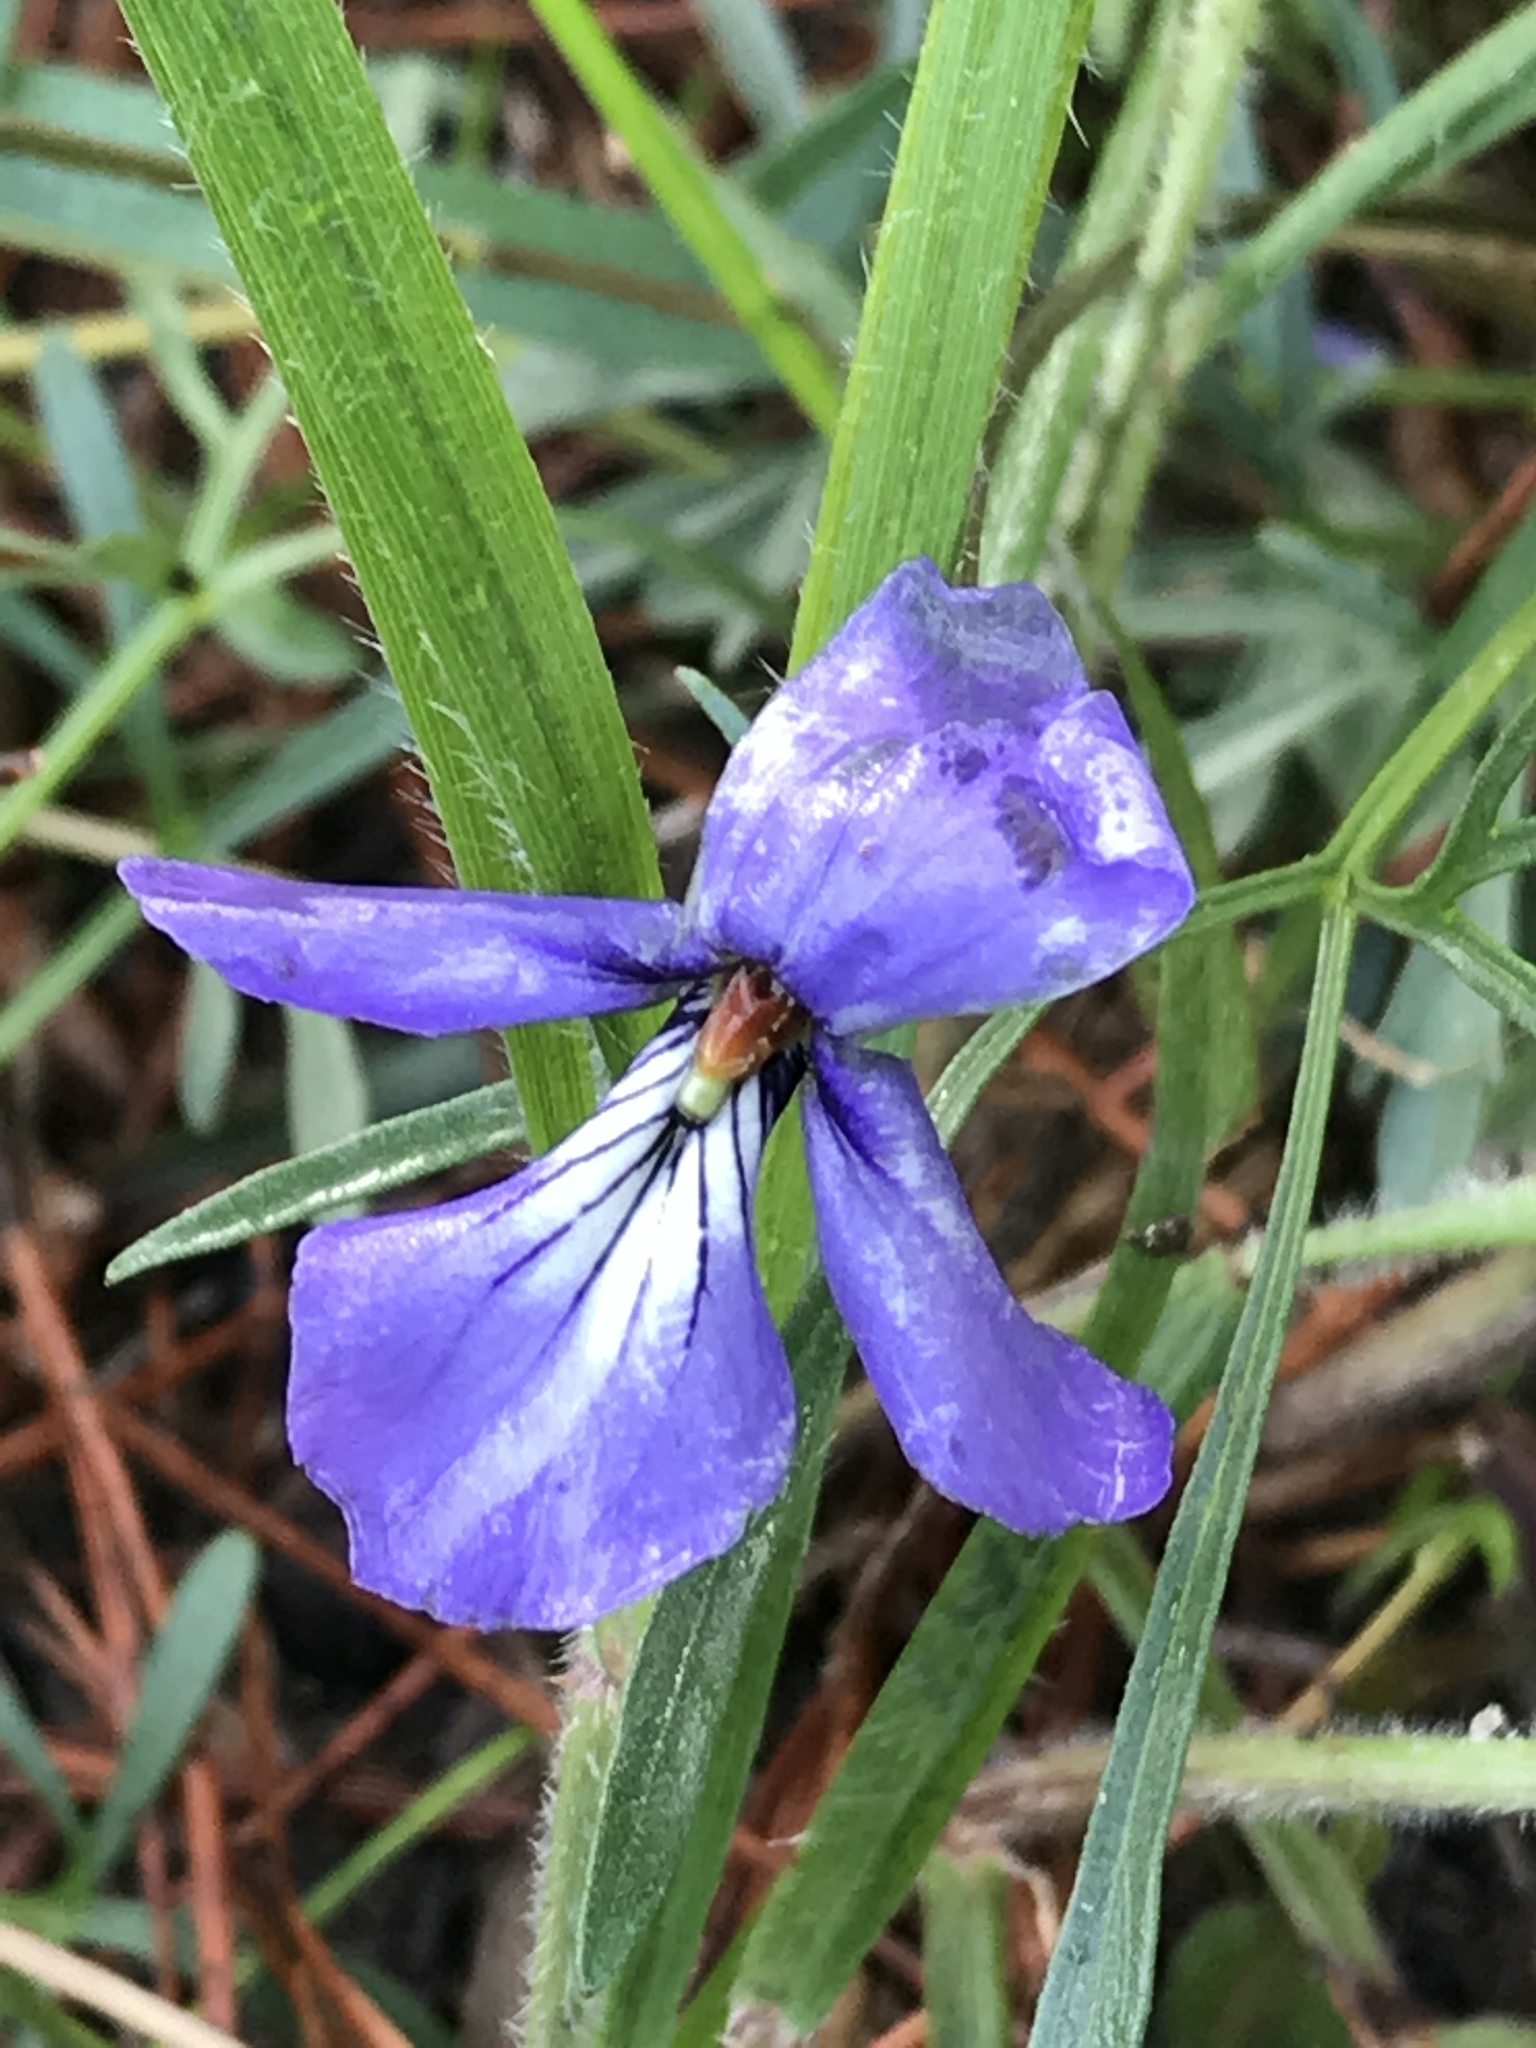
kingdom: Plantae
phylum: Tracheophyta
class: Magnoliopsida
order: Malpighiales
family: Violaceae
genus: Viola
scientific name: Viola pedata
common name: Pansy violet
